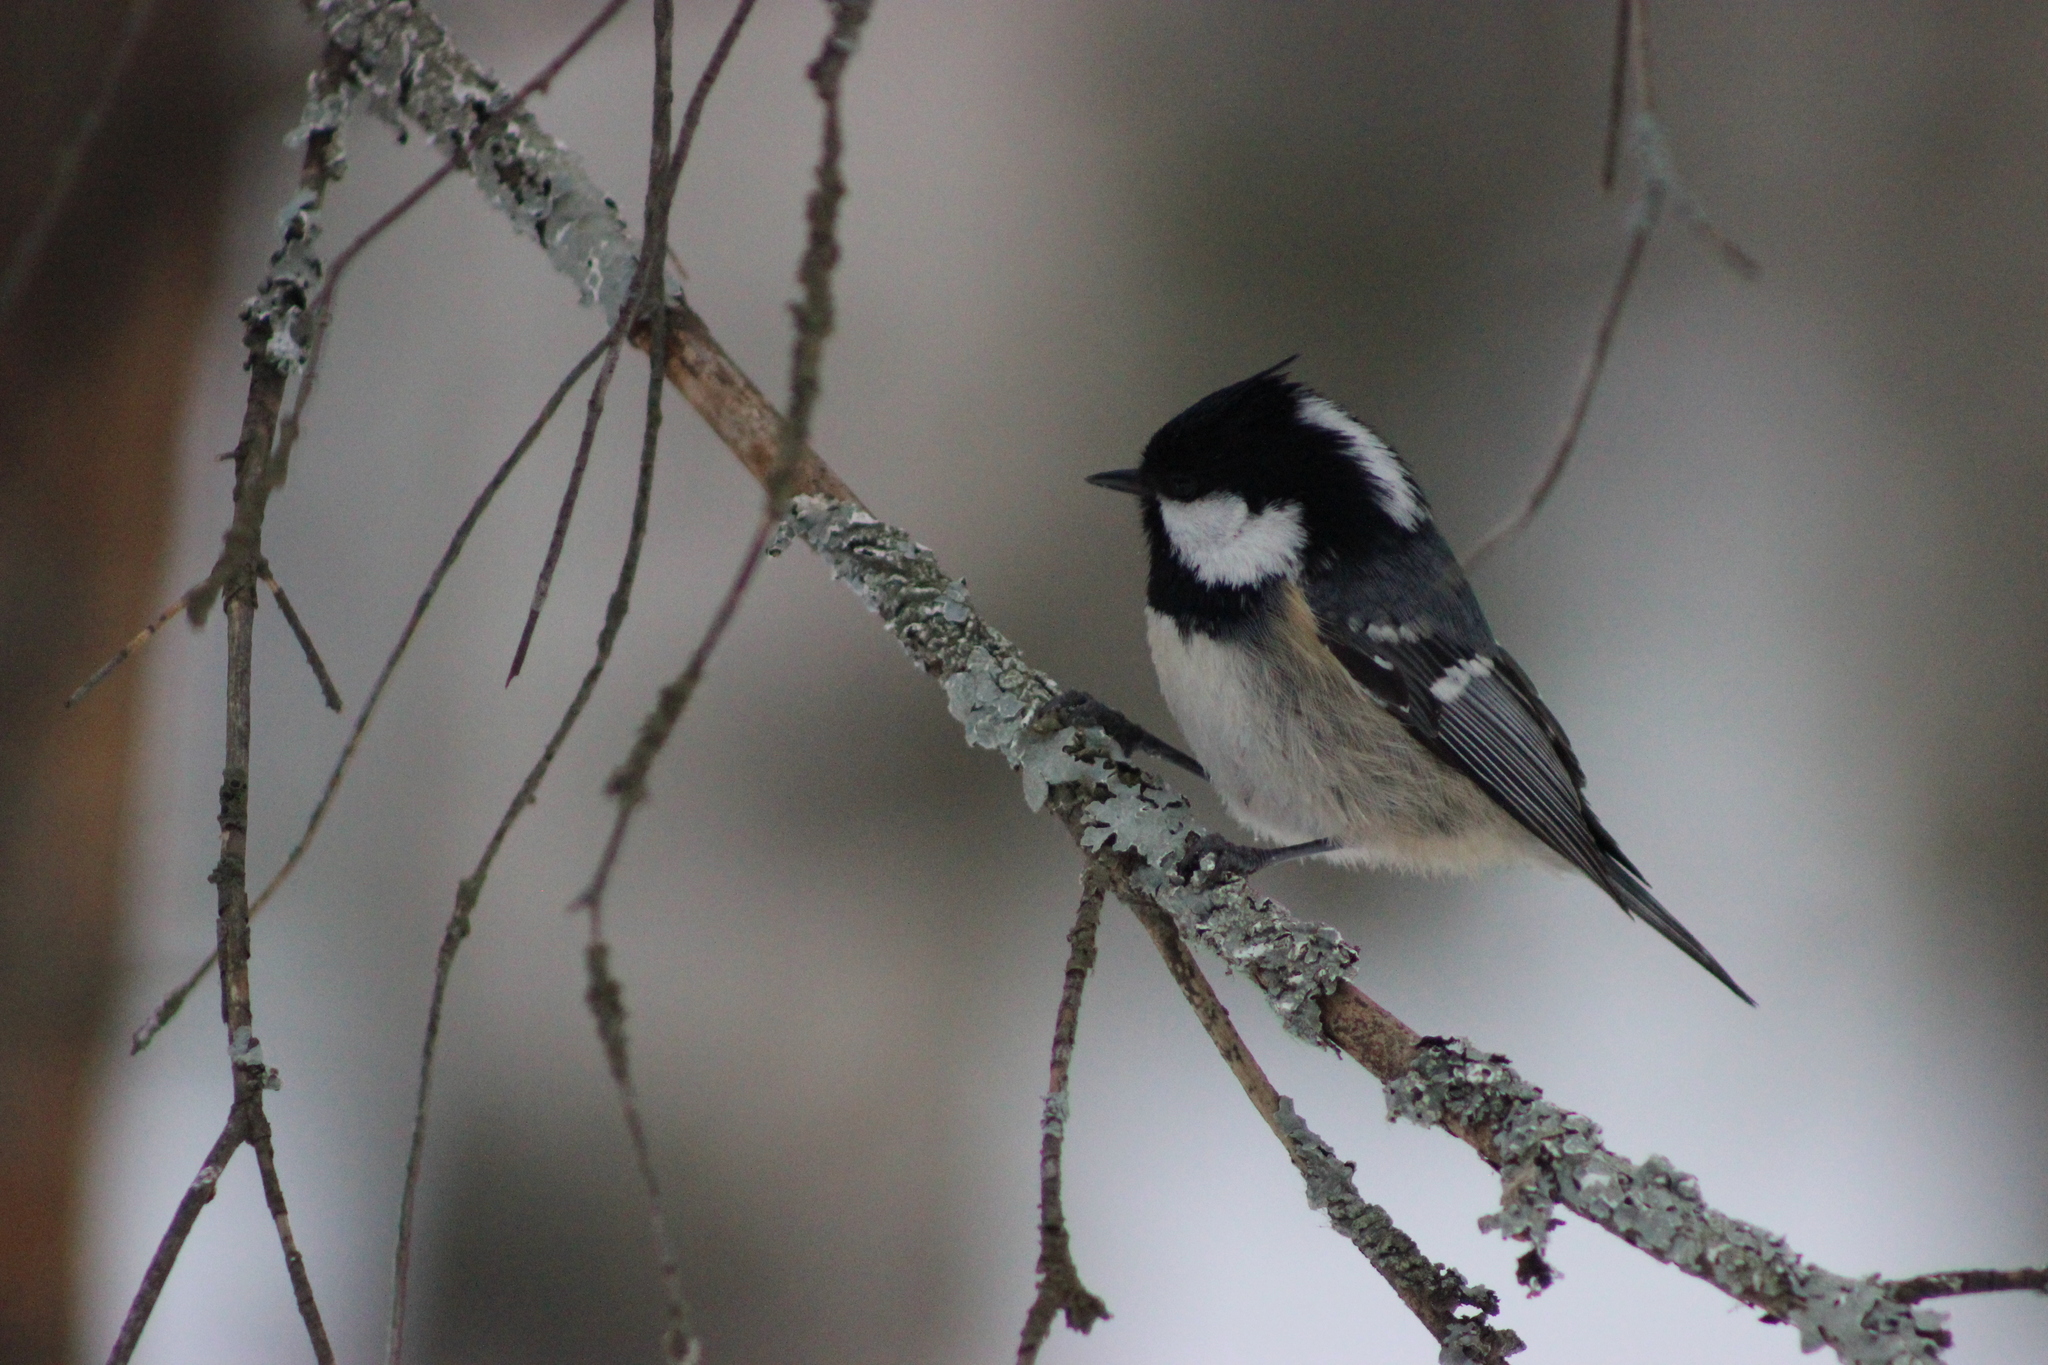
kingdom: Animalia
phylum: Chordata
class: Aves
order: Passeriformes
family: Paridae
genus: Periparus
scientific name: Periparus ater
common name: Coal tit
